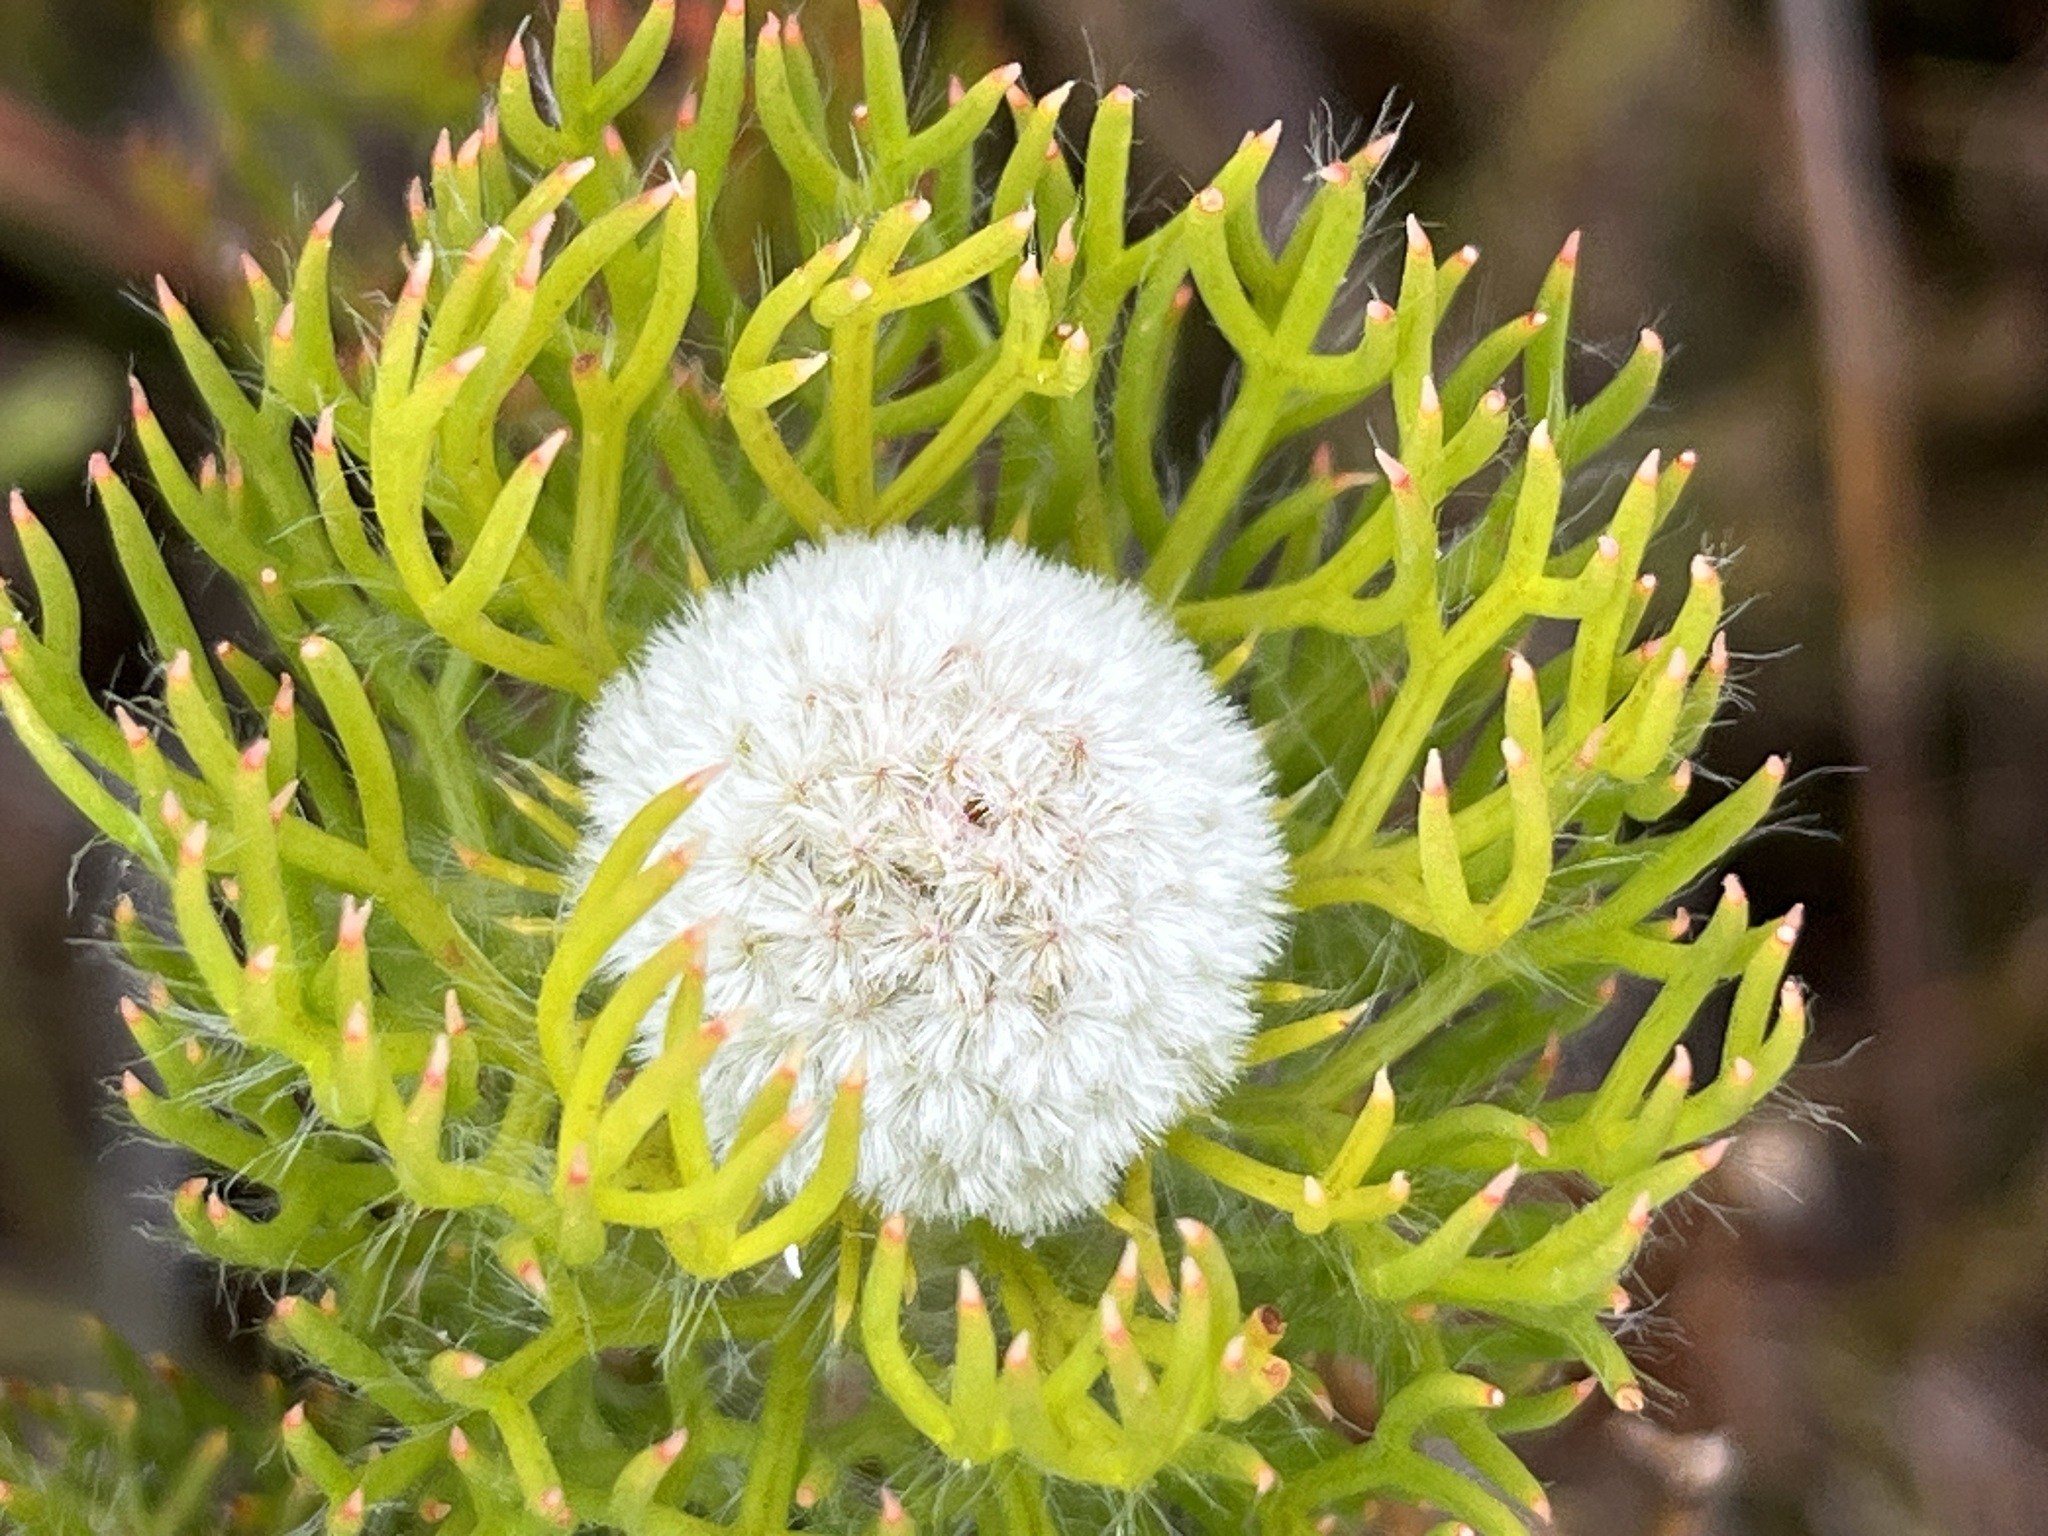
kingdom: Plantae
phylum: Tracheophyta
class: Magnoliopsida
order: Proteales
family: Proteaceae
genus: Serruria
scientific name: Serruria villosa
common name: Golden spiderhead
